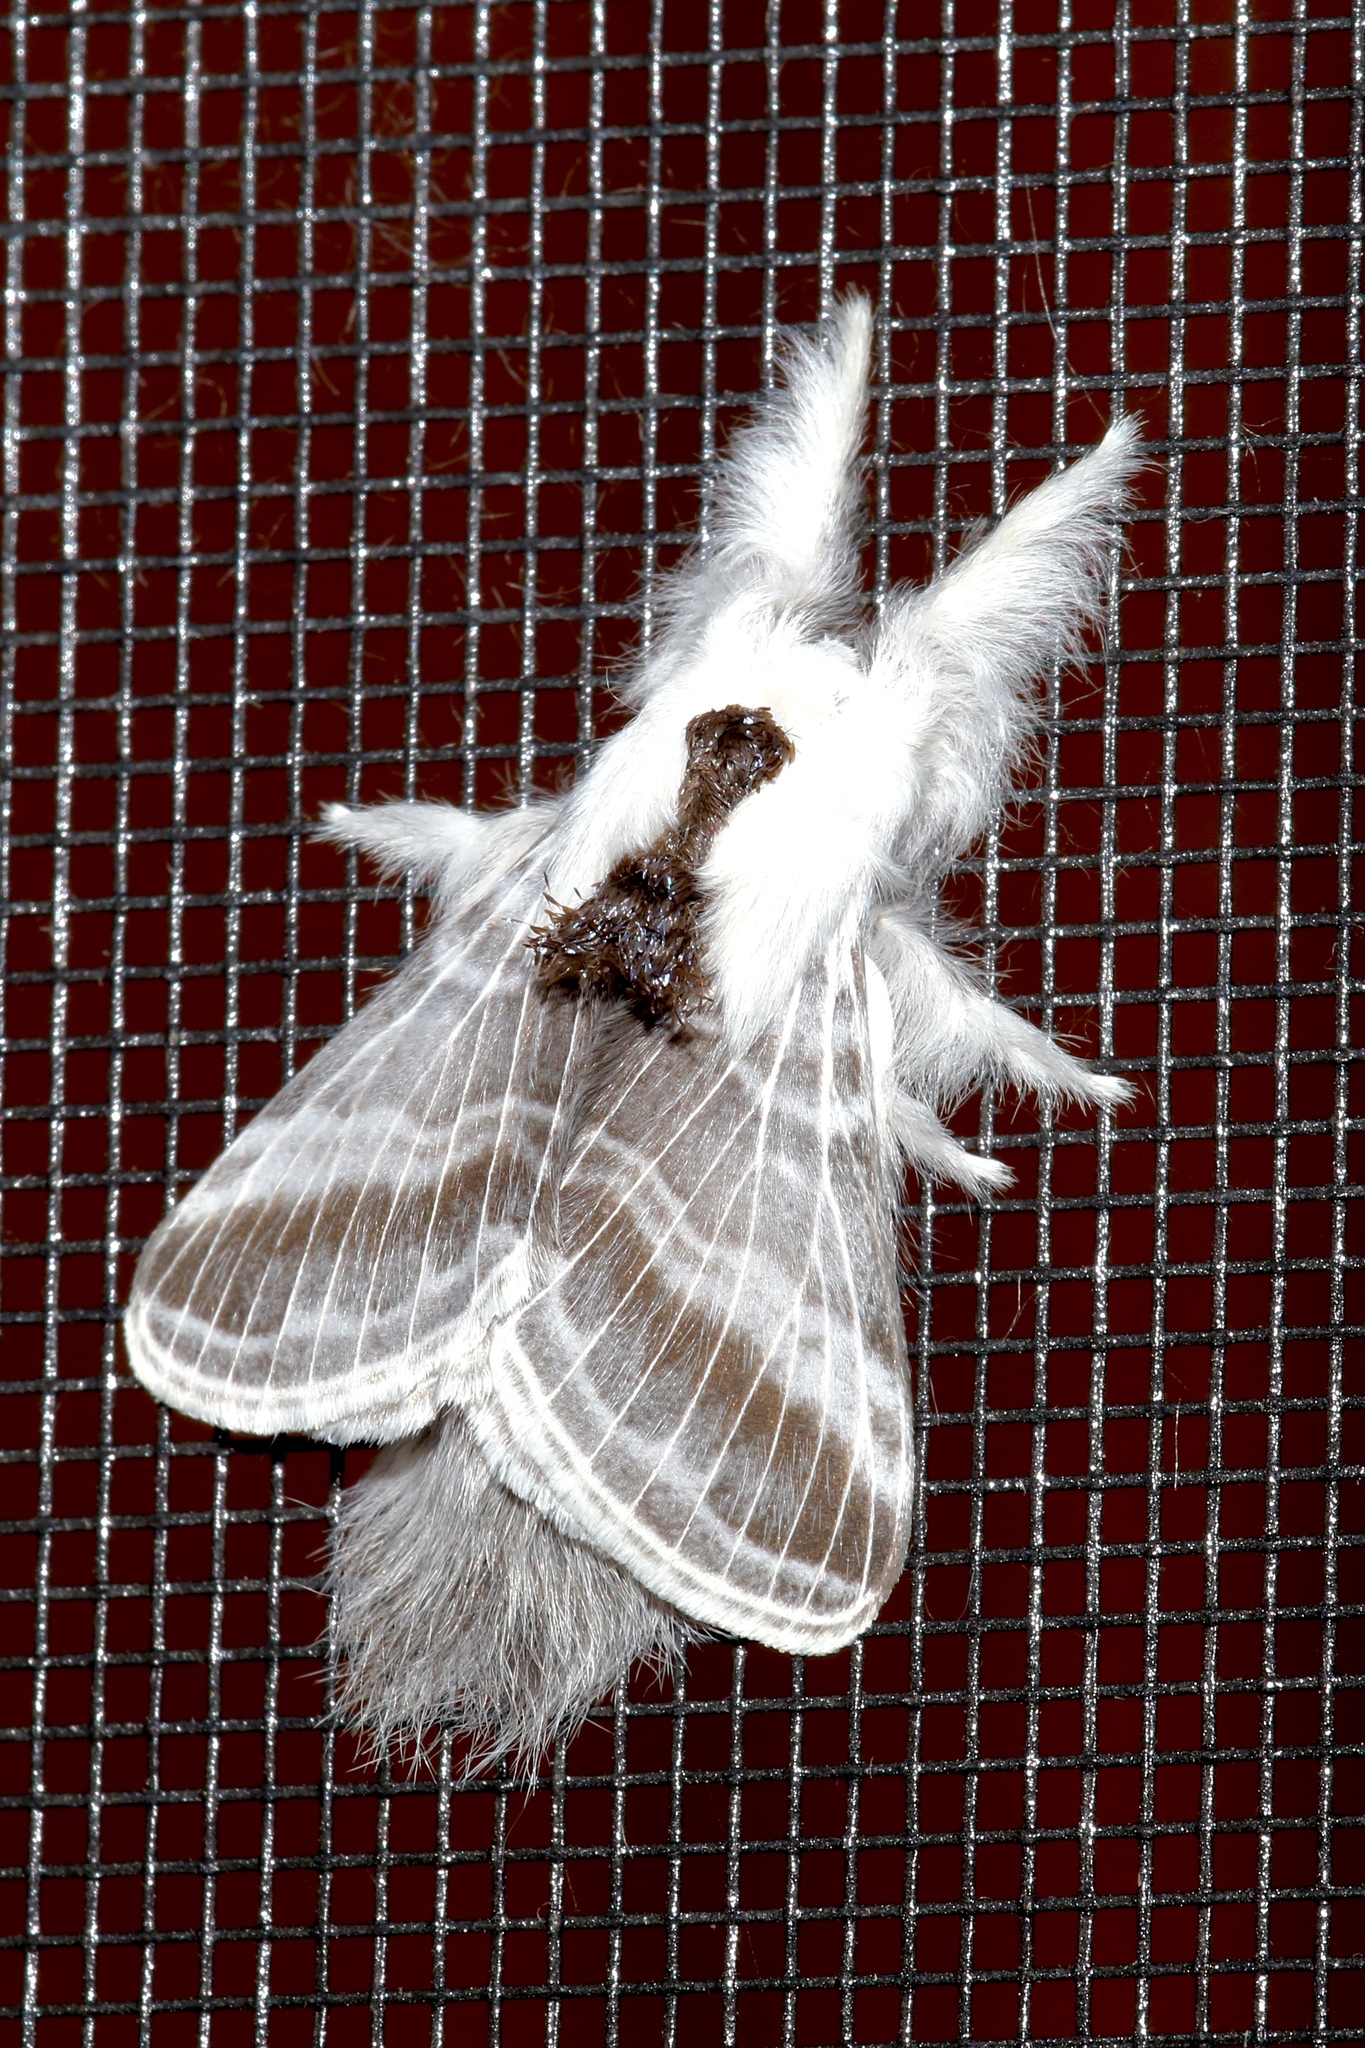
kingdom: Animalia
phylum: Arthropoda
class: Insecta
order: Lepidoptera
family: Lasiocampidae
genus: Tolype
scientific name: Tolype velleda
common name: Large tolype moth
